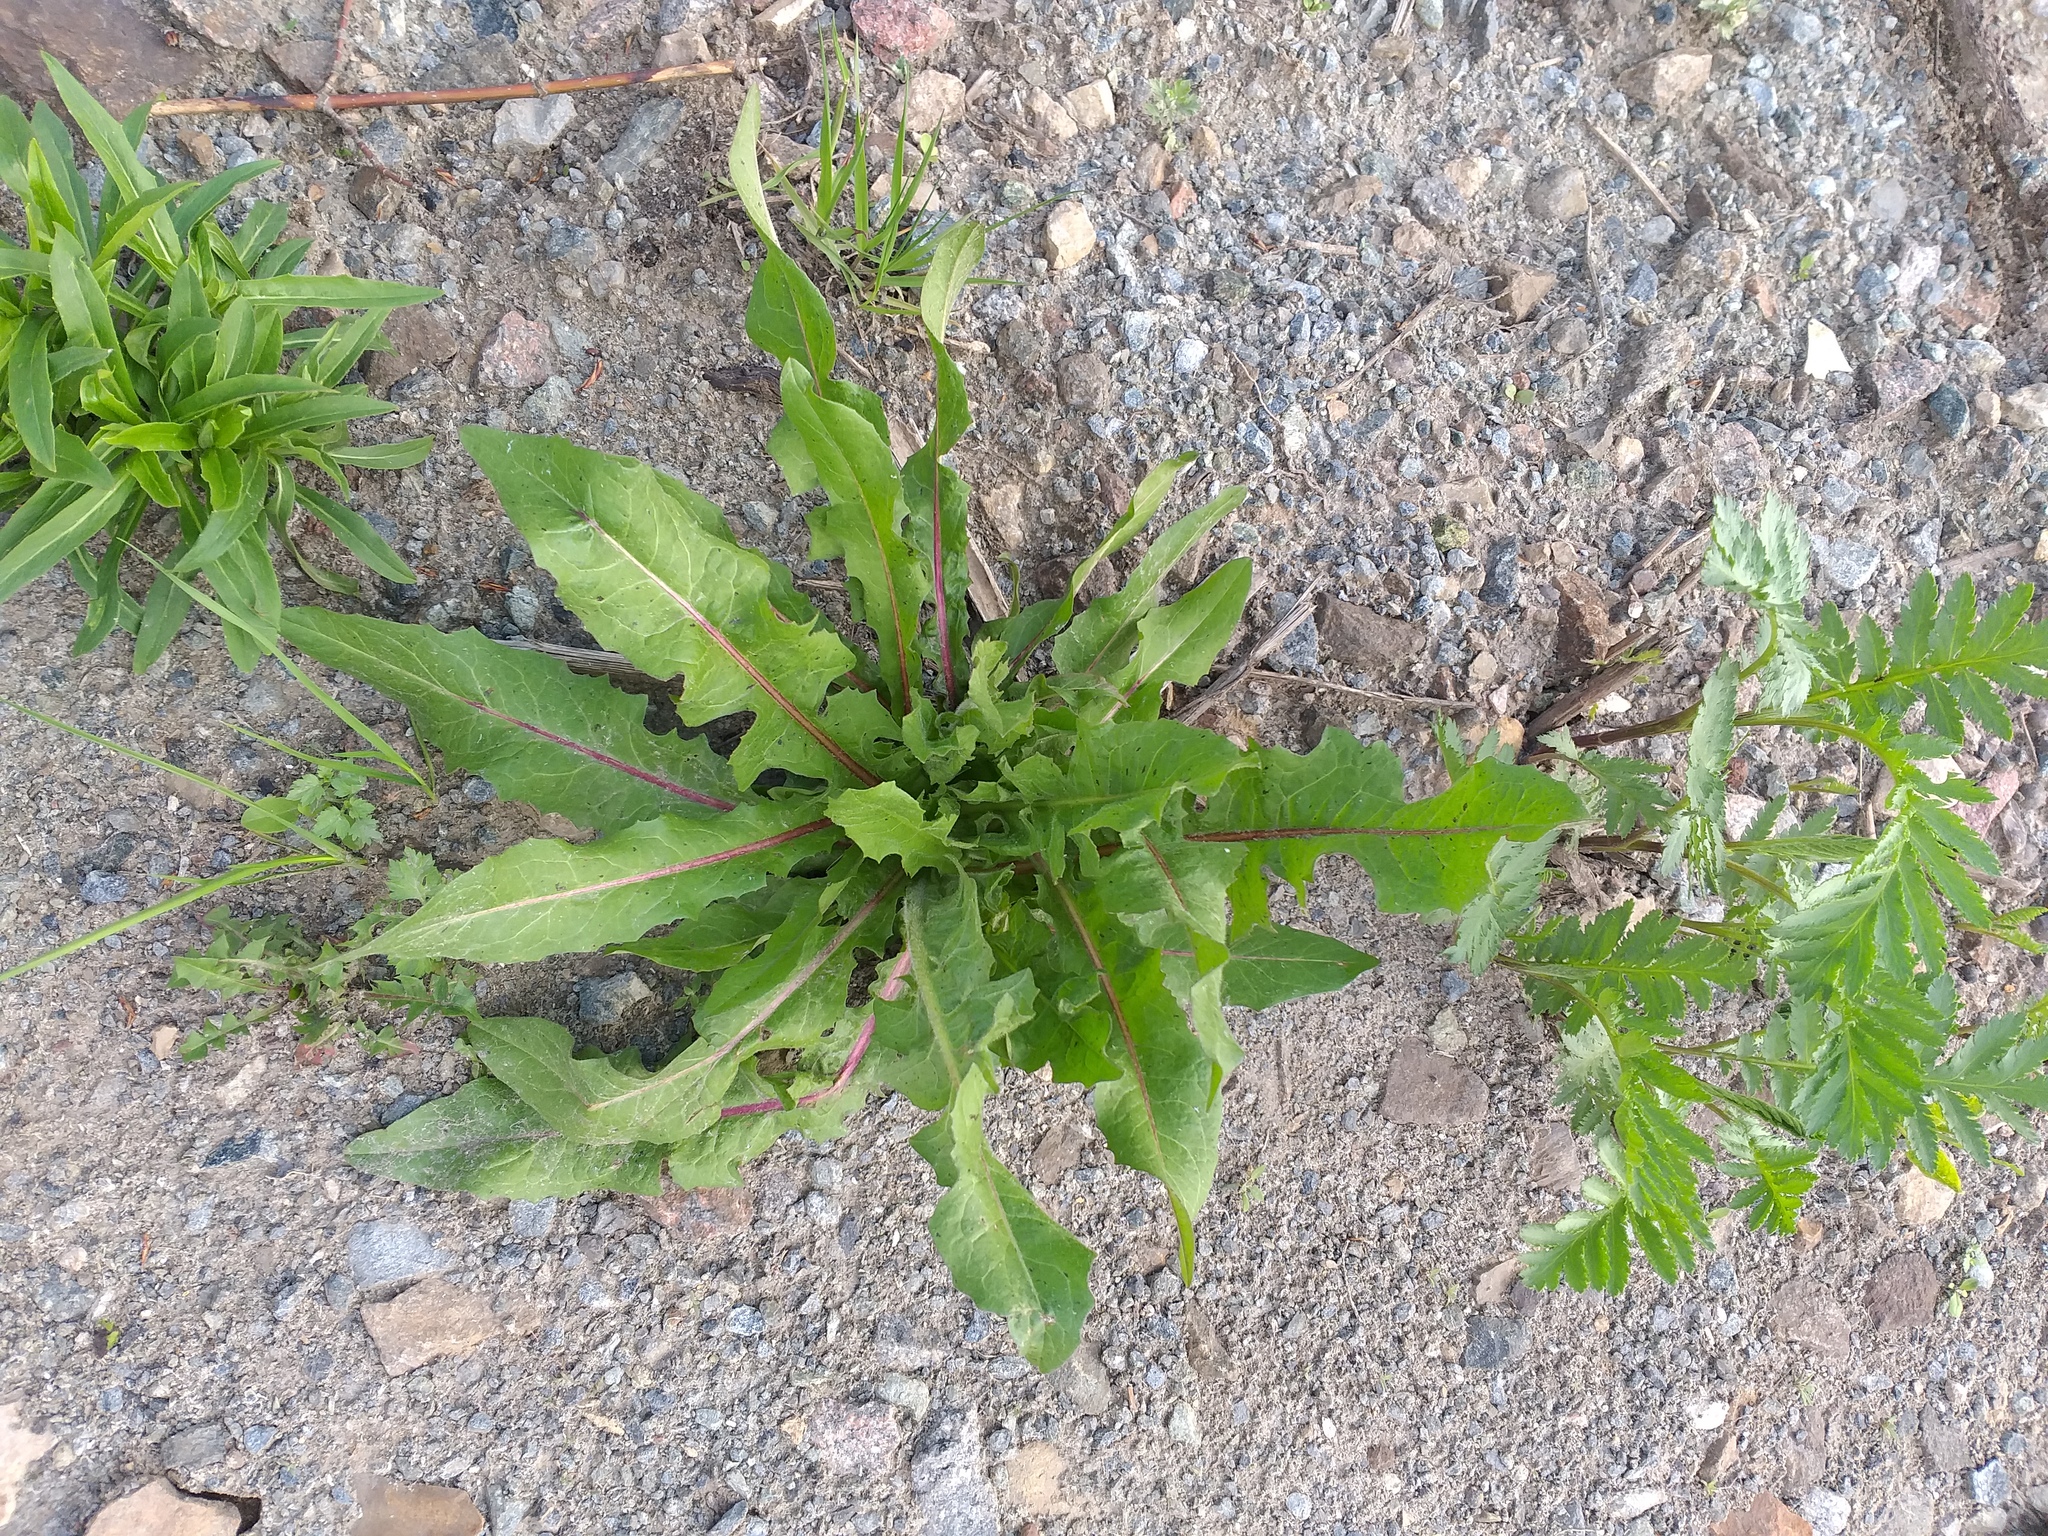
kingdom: Plantae
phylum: Tracheophyta
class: Magnoliopsida
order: Asterales
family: Asteraceae
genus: Cichorium
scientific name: Cichorium intybus
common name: Chicory
